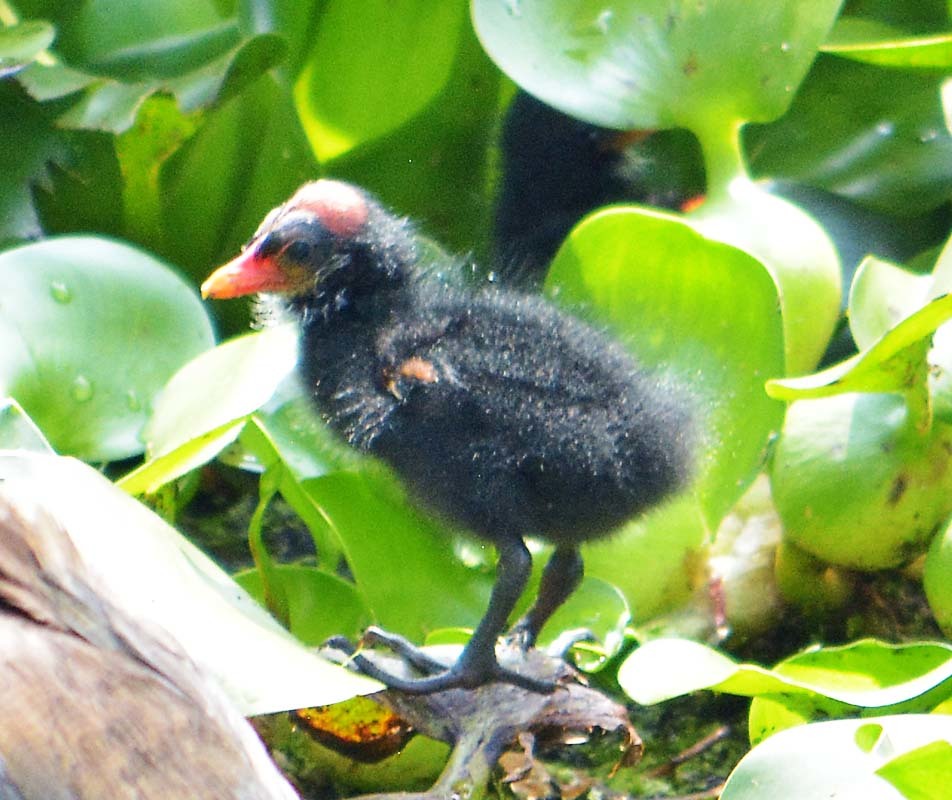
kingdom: Animalia
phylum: Chordata
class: Aves
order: Gruiformes
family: Rallidae
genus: Gallinula
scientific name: Gallinula chloropus
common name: Common moorhen
